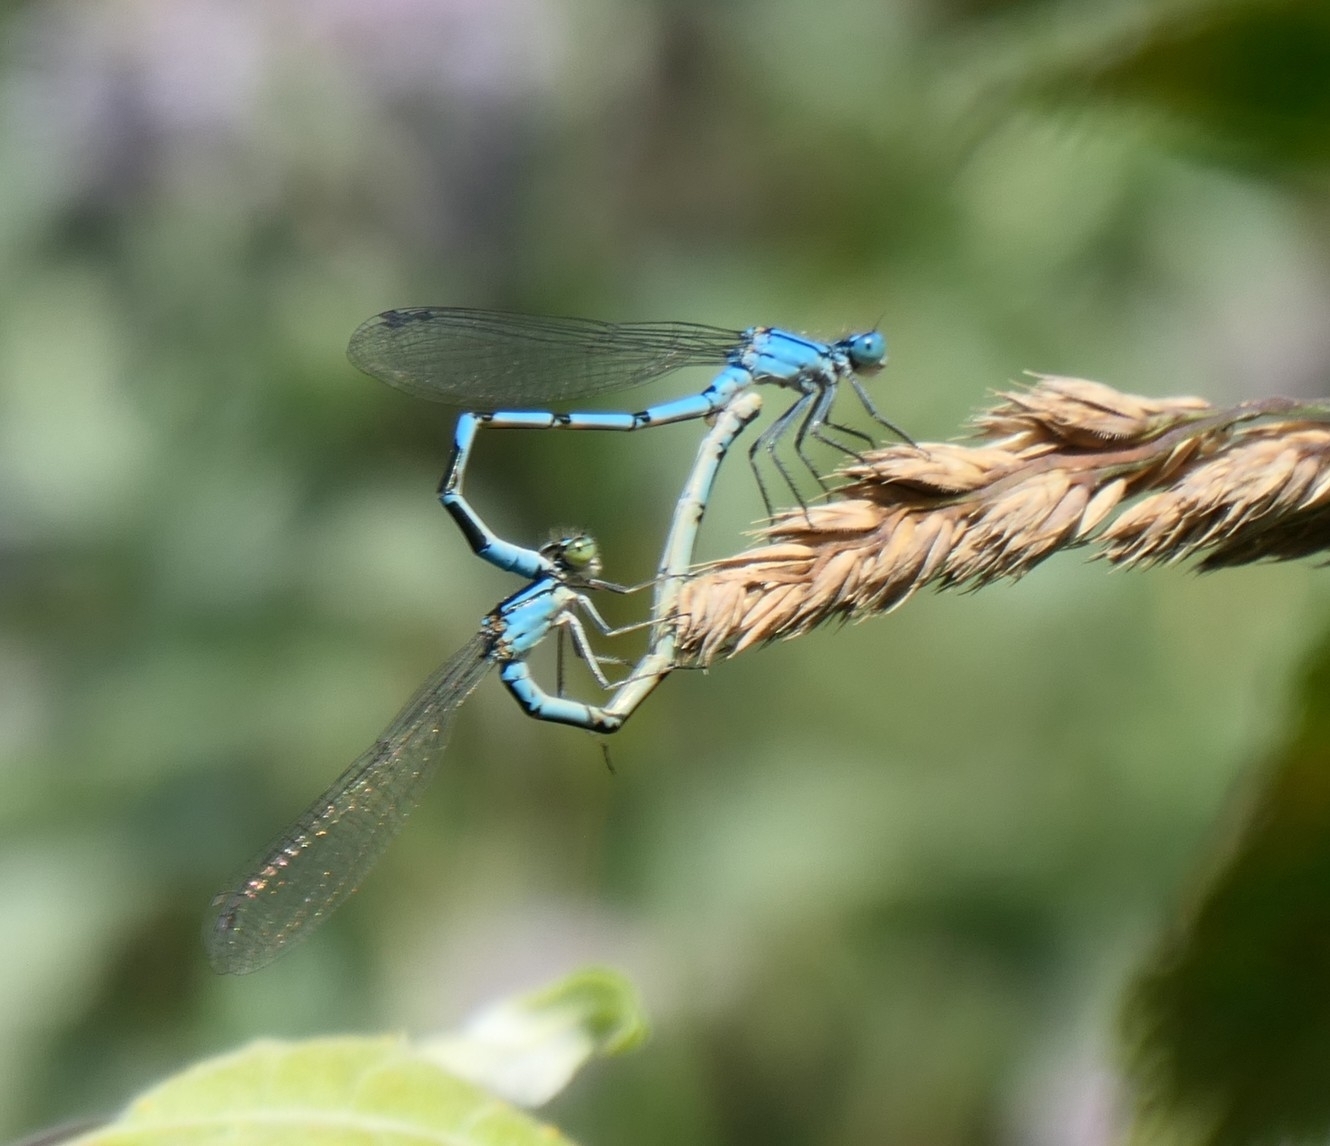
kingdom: Animalia
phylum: Arthropoda
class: Insecta
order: Odonata
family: Coenagrionidae
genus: Enallagma
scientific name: Enallagma cyathigerum
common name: Common blue damselfly
